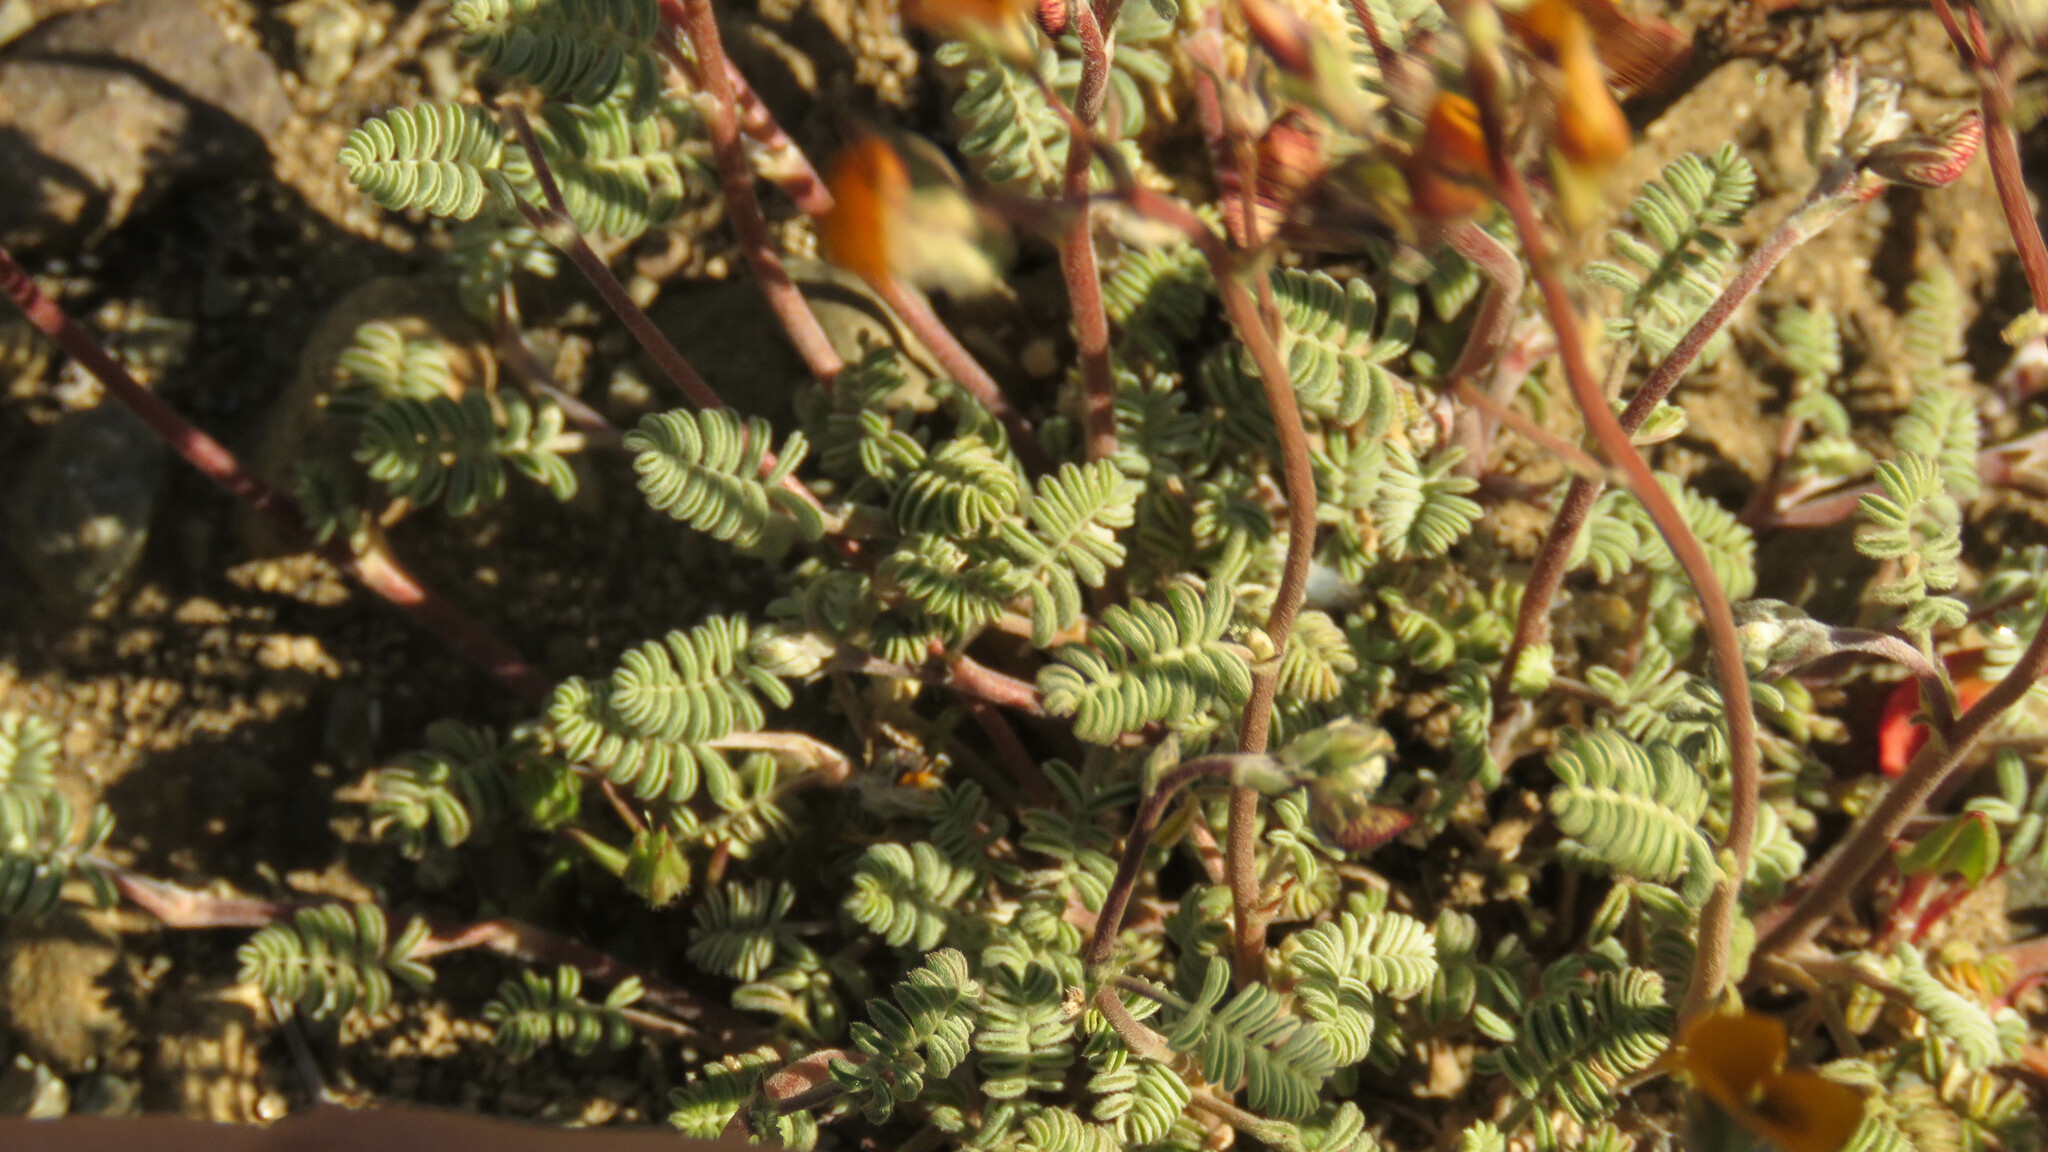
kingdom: Plantae
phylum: Tracheophyta
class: Magnoliopsida
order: Fabales
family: Fabaceae
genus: Adesmia
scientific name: Adesmia corymbosa
